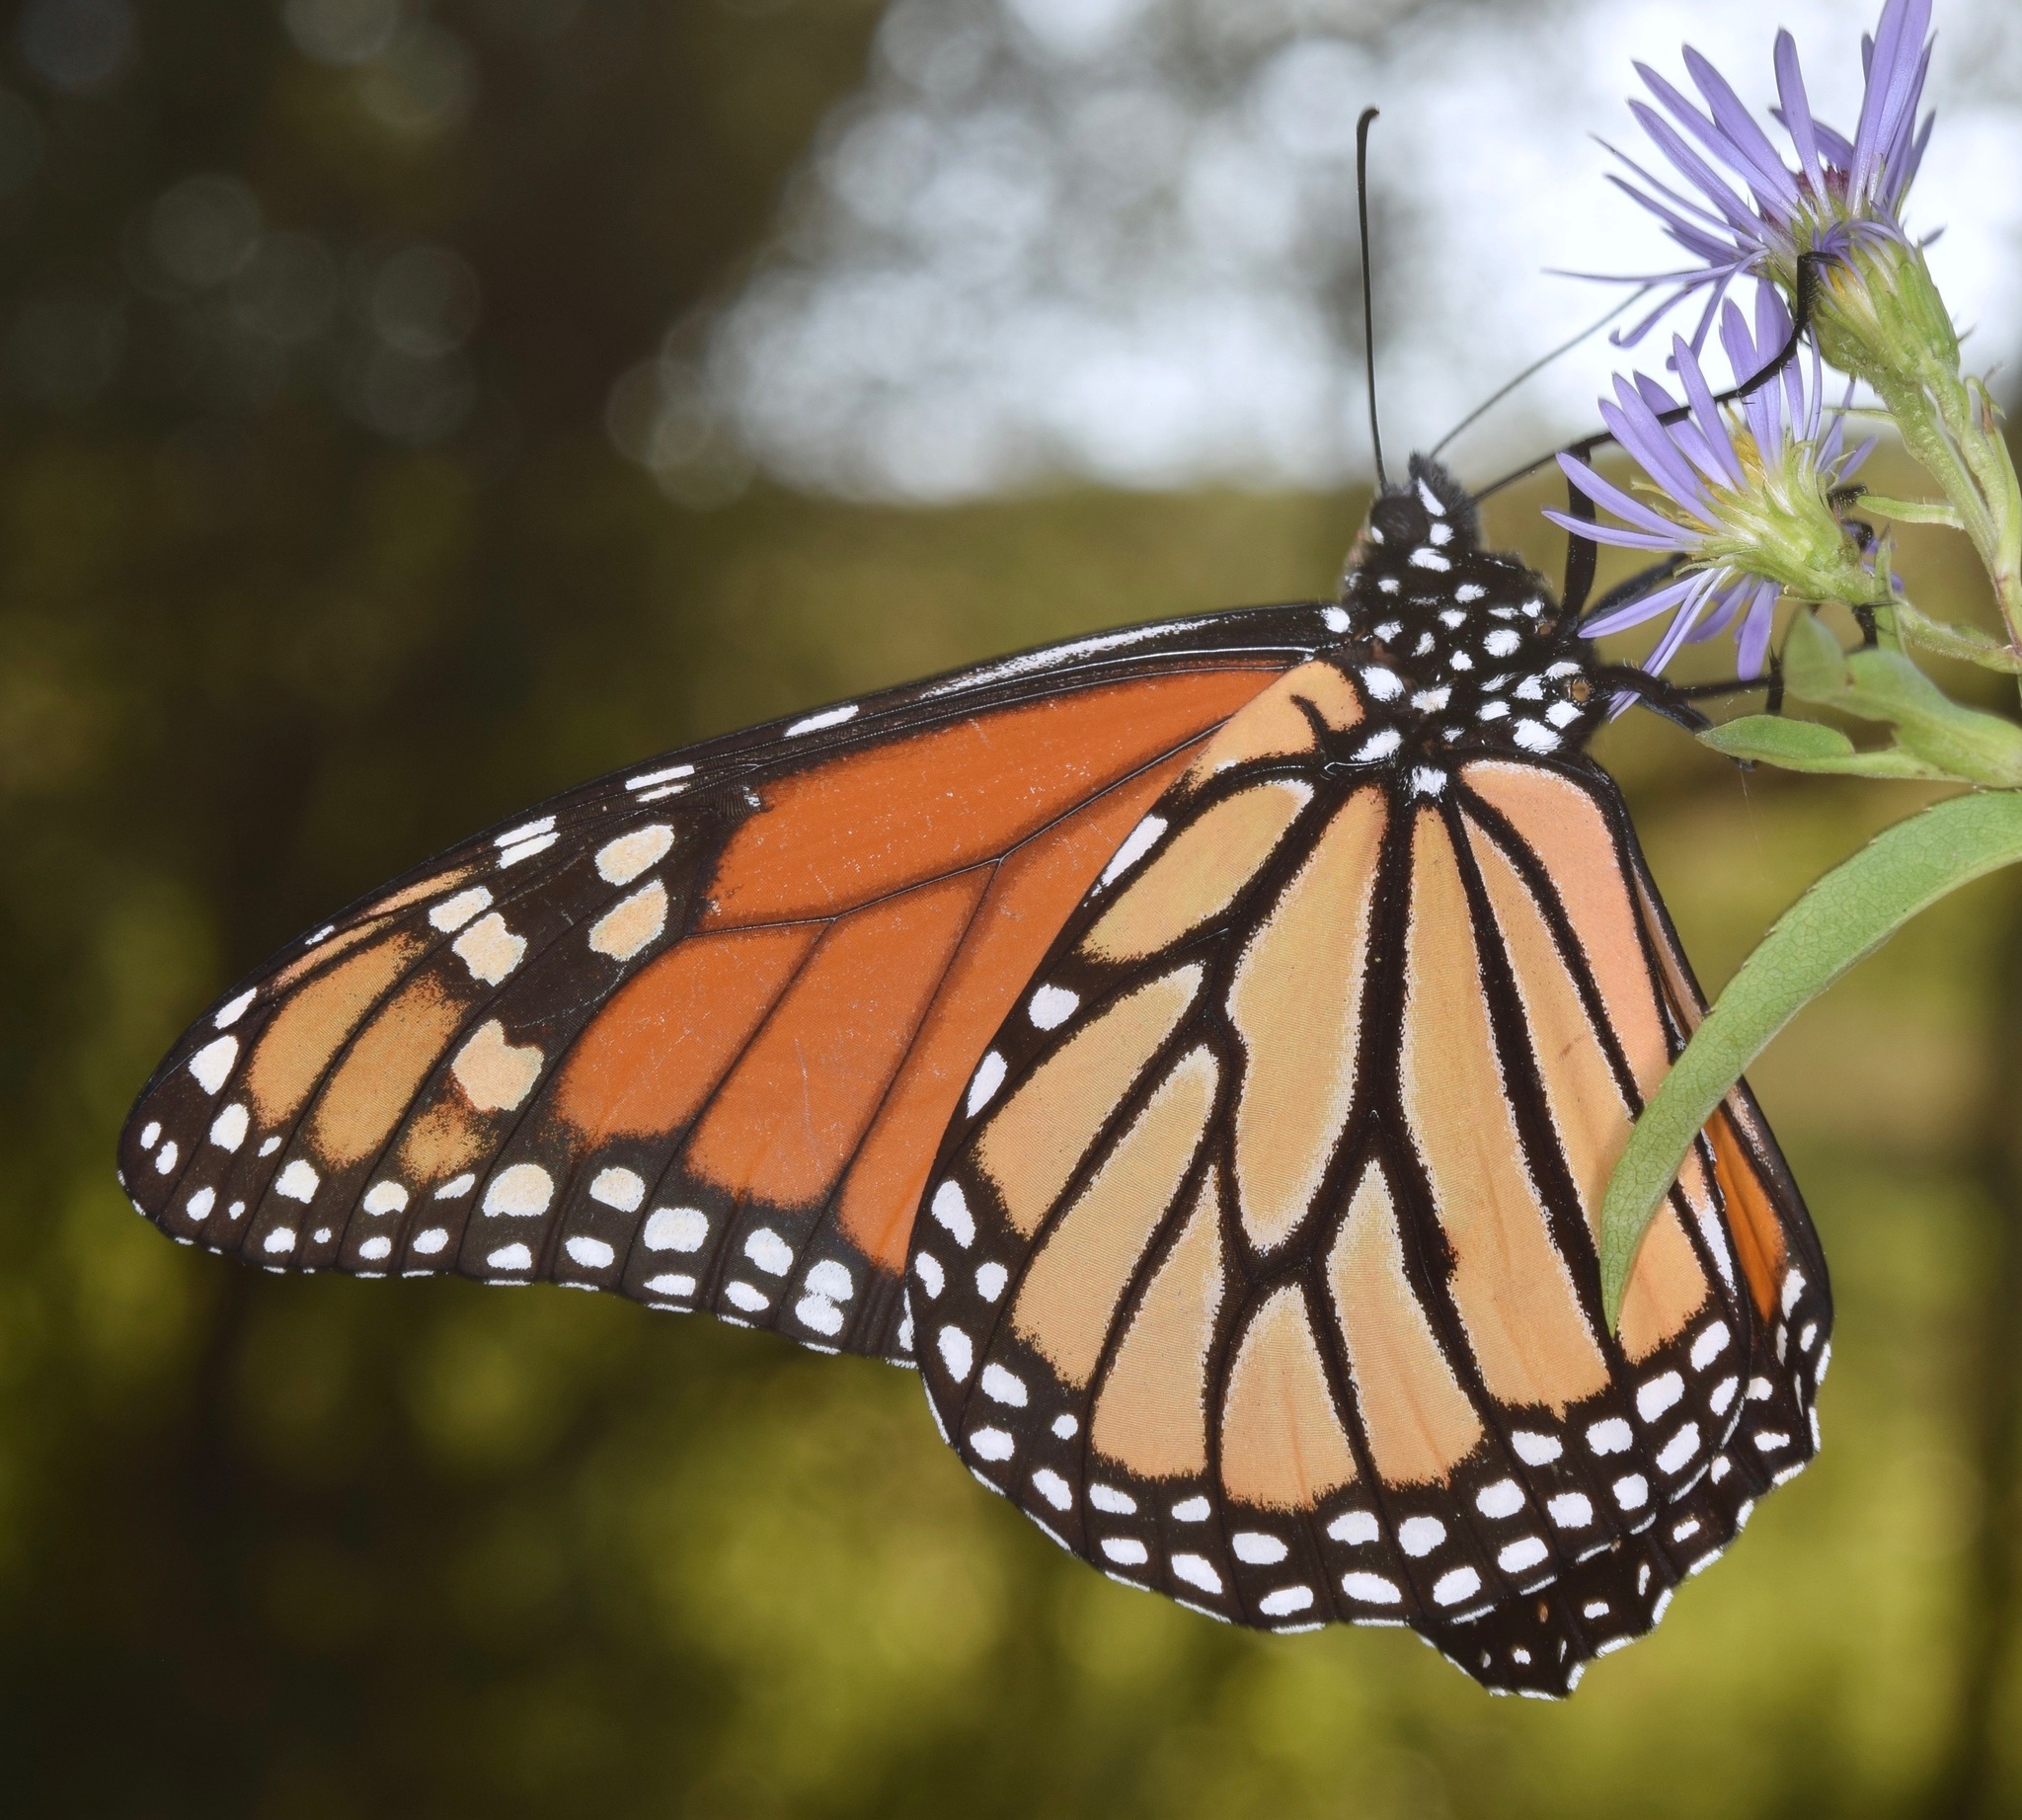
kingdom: Animalia
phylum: Arthropoda
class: Insecta
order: Lepidoptera
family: Nymphalidae
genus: Danaus
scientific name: Danaus plexippus
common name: Monarch
